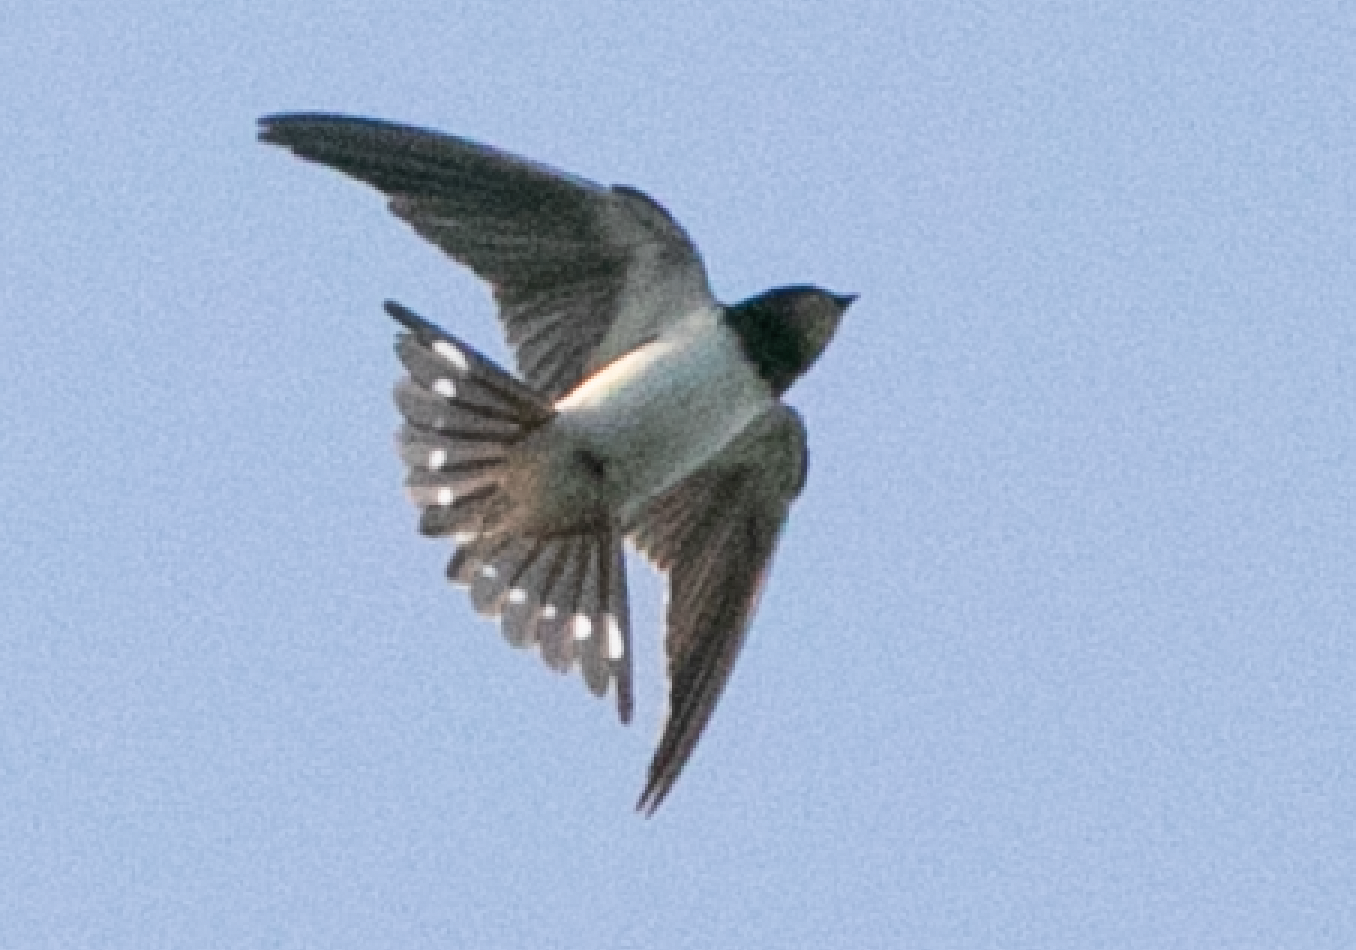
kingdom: Animalia
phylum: Chordata
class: Aves
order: Passeriformes
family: Hirundinidae
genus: Hirundo
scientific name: Hirundo rustica
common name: Barn swallow
